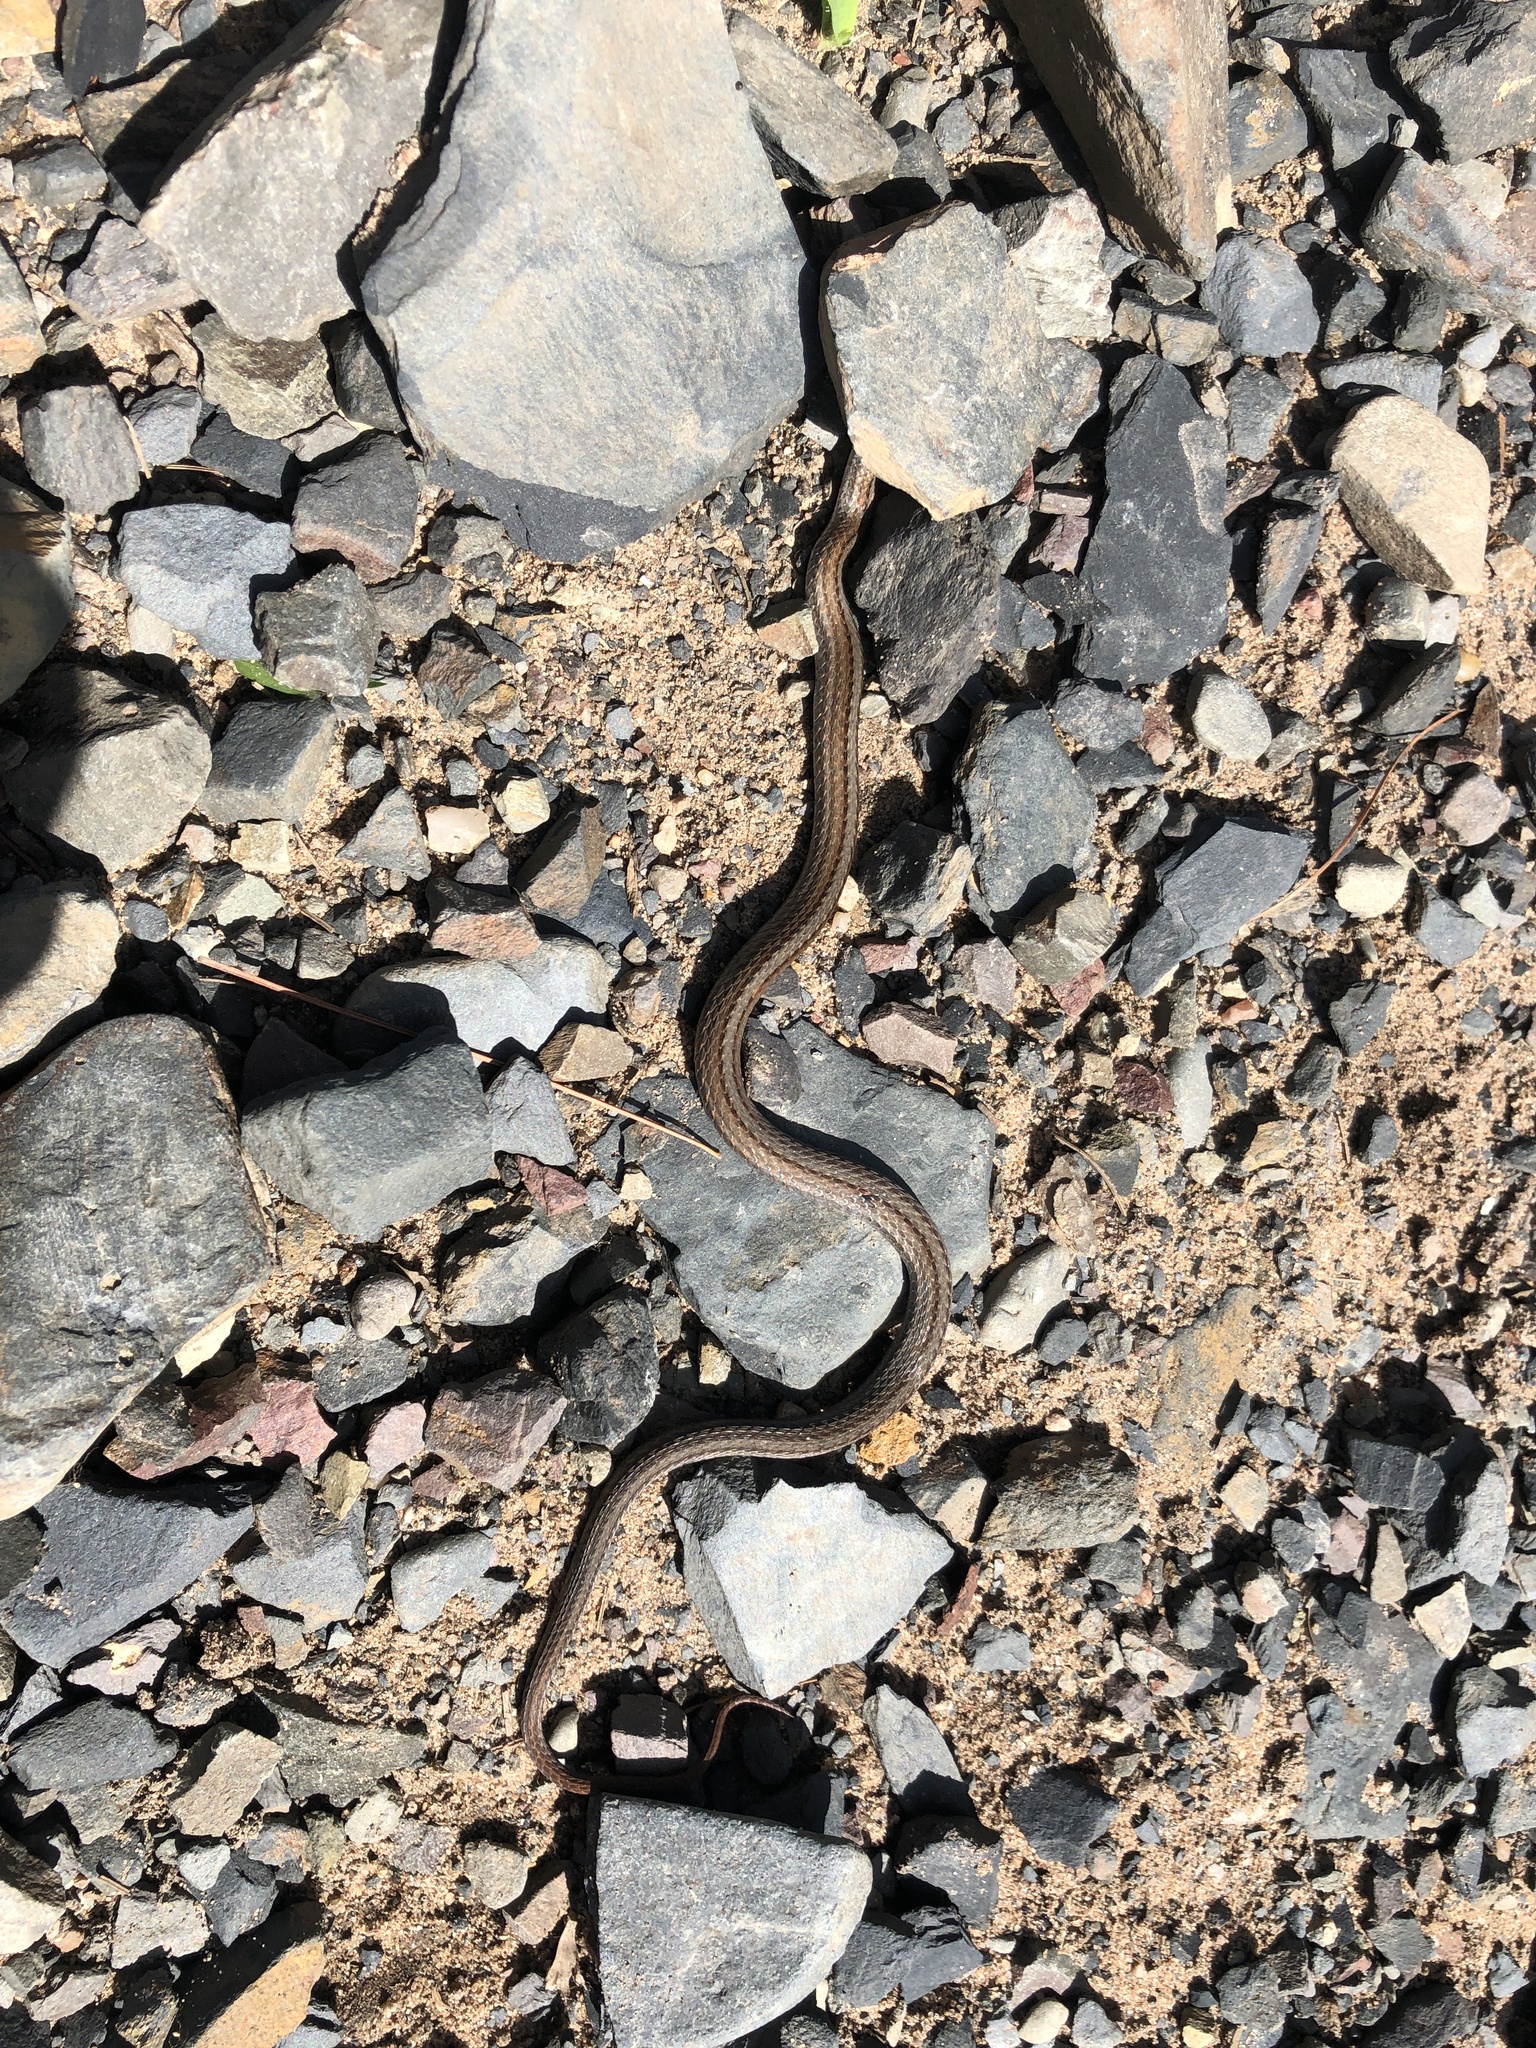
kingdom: Animalia
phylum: Chordata
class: Squamata
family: Colubridae
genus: Storeria
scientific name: Storeria occipitomaculata
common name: Redbelly snake
